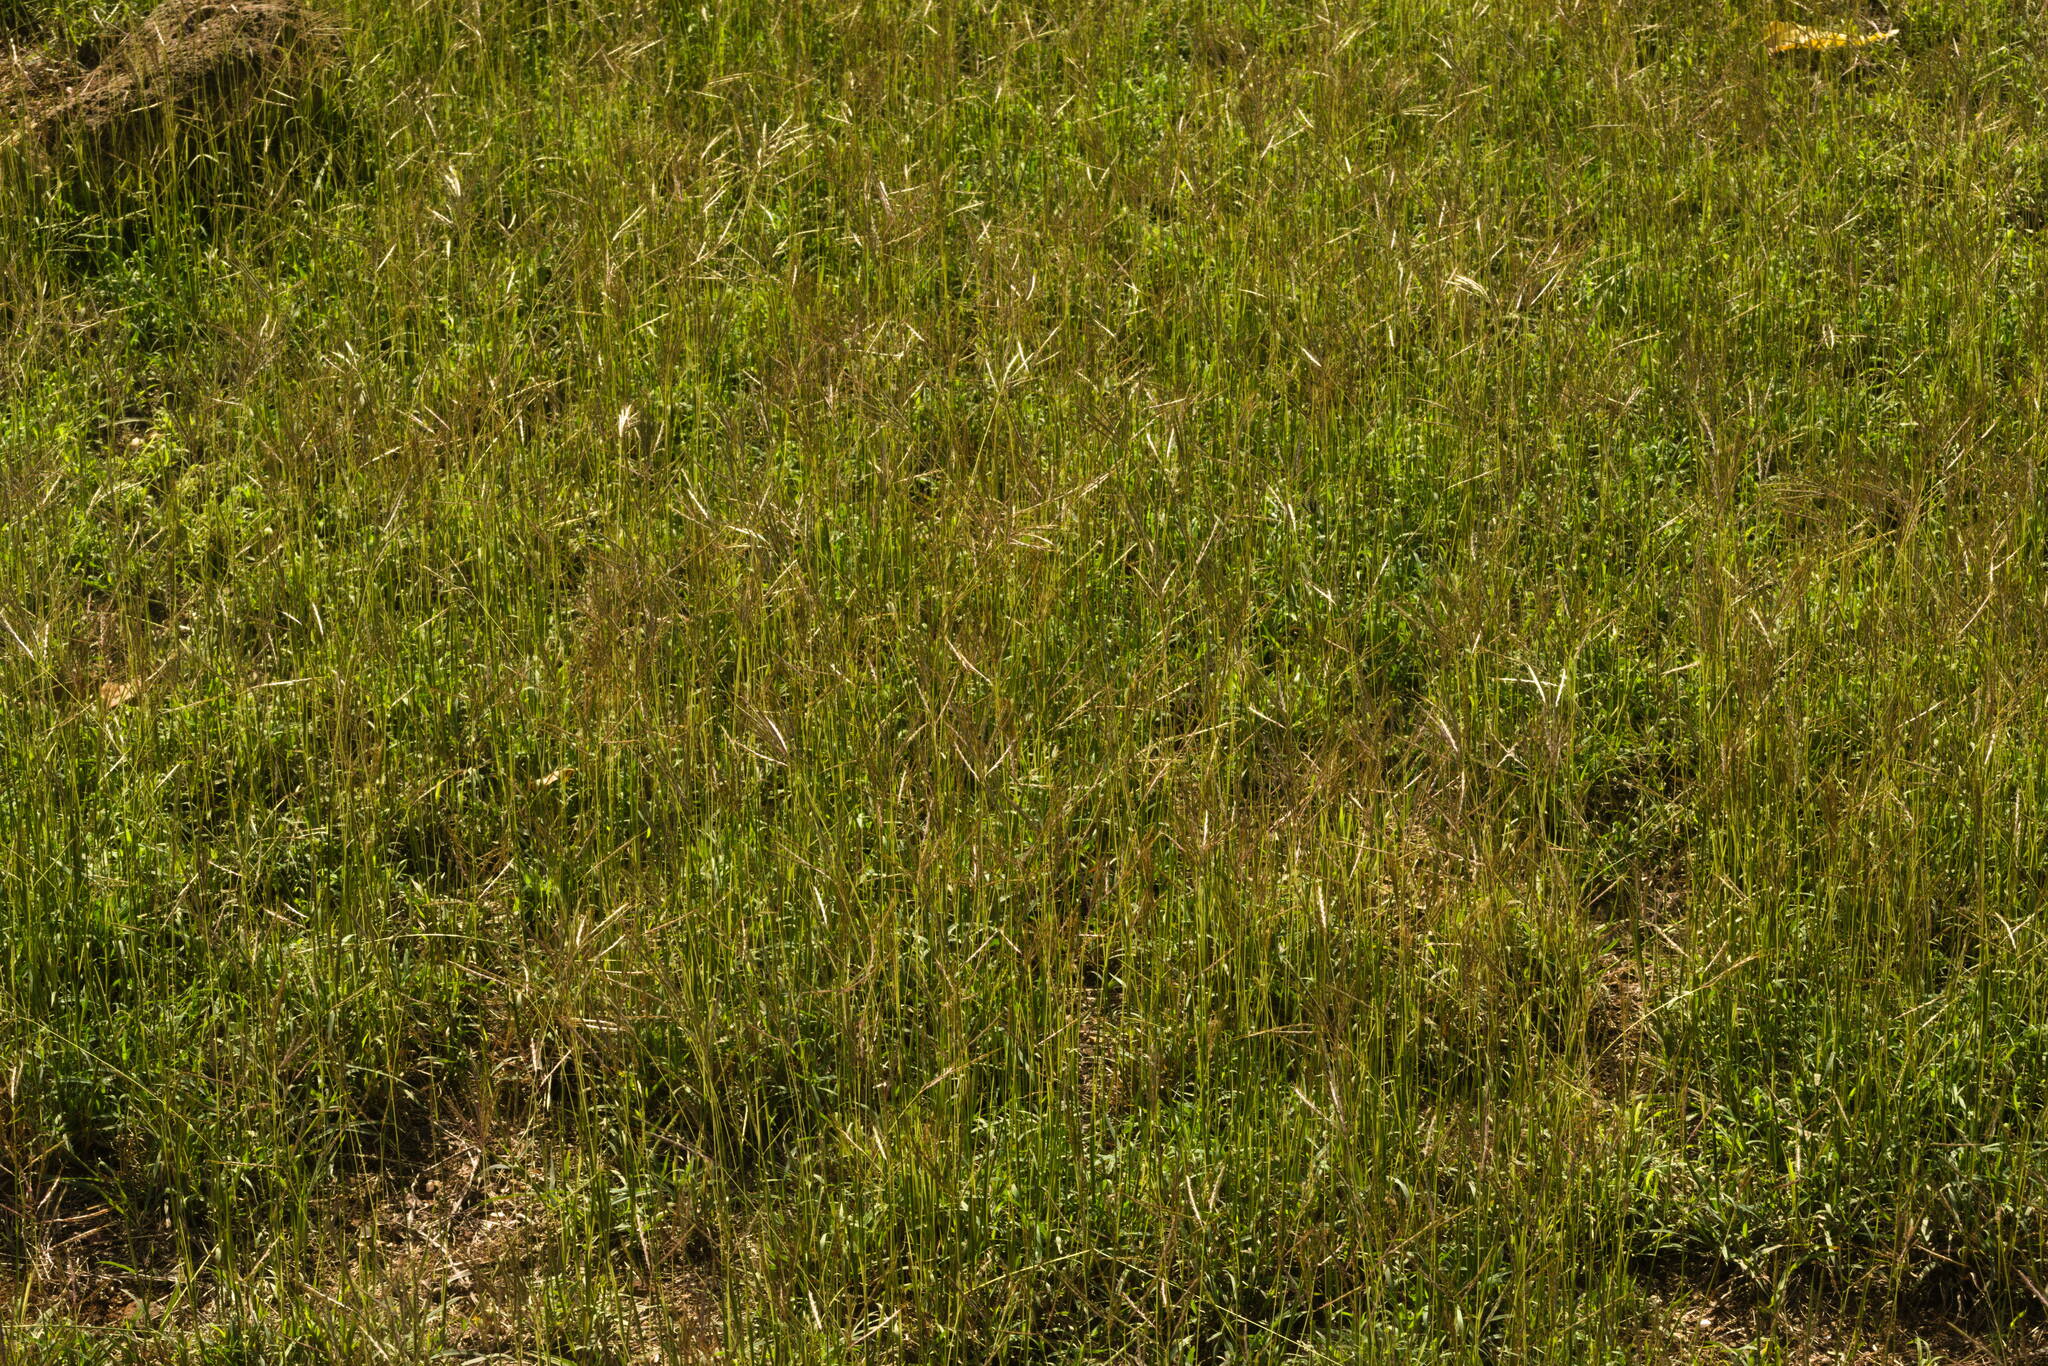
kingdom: Plantae
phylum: Tracheophyta
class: Liliopsida
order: Poales
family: Poaceae
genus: Bothriochloa
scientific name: Bothriochloa pertusa
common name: Pitted beardgrass
